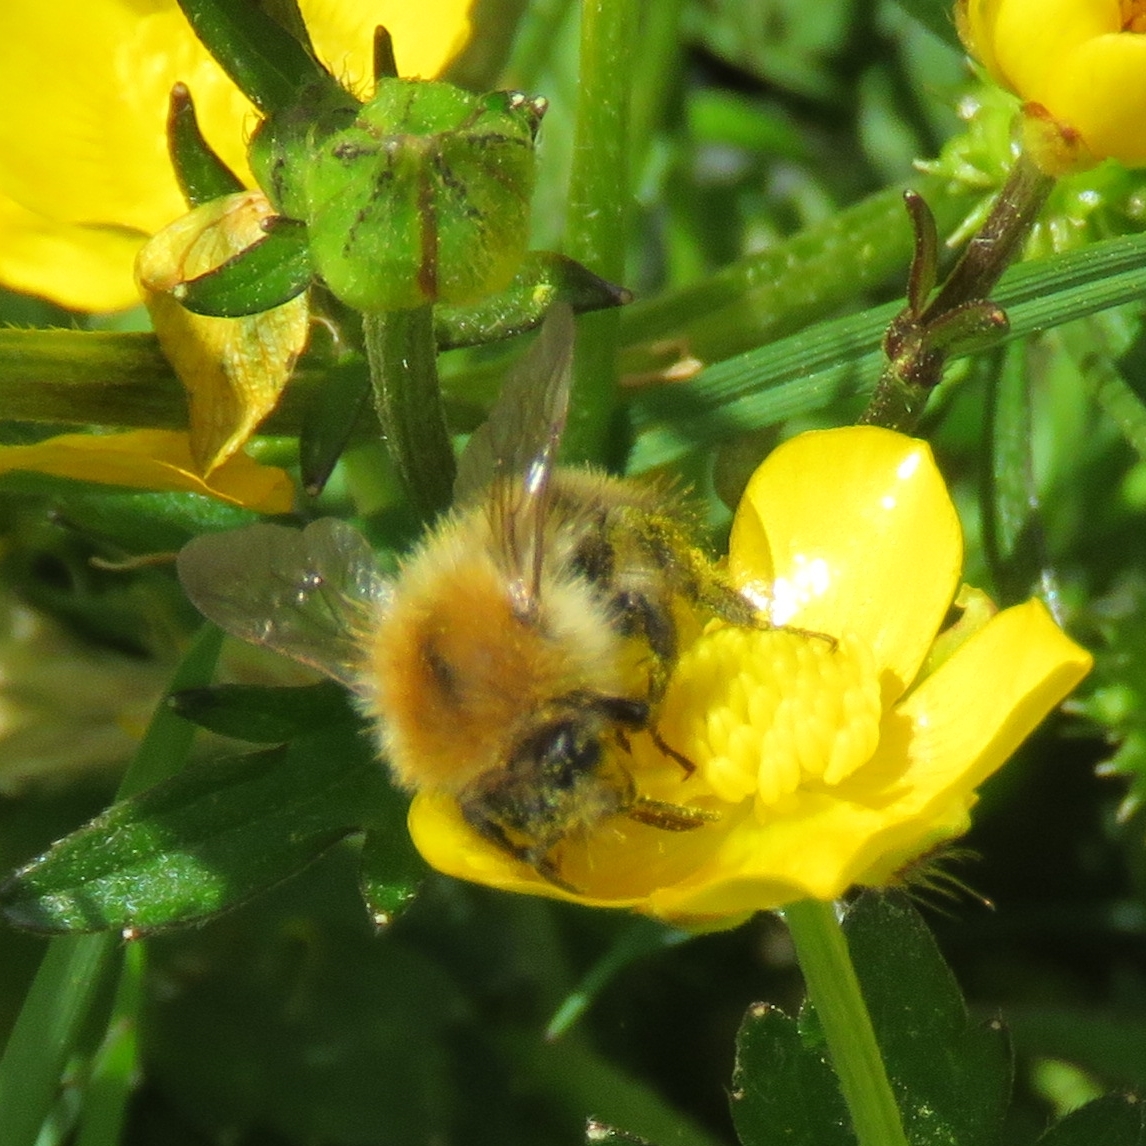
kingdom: Animalia
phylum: Arthropoda
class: Insecta
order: Hymenoptera
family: Apidae
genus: Bombus
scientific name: Bombus pascuorum
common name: Common carder bee
